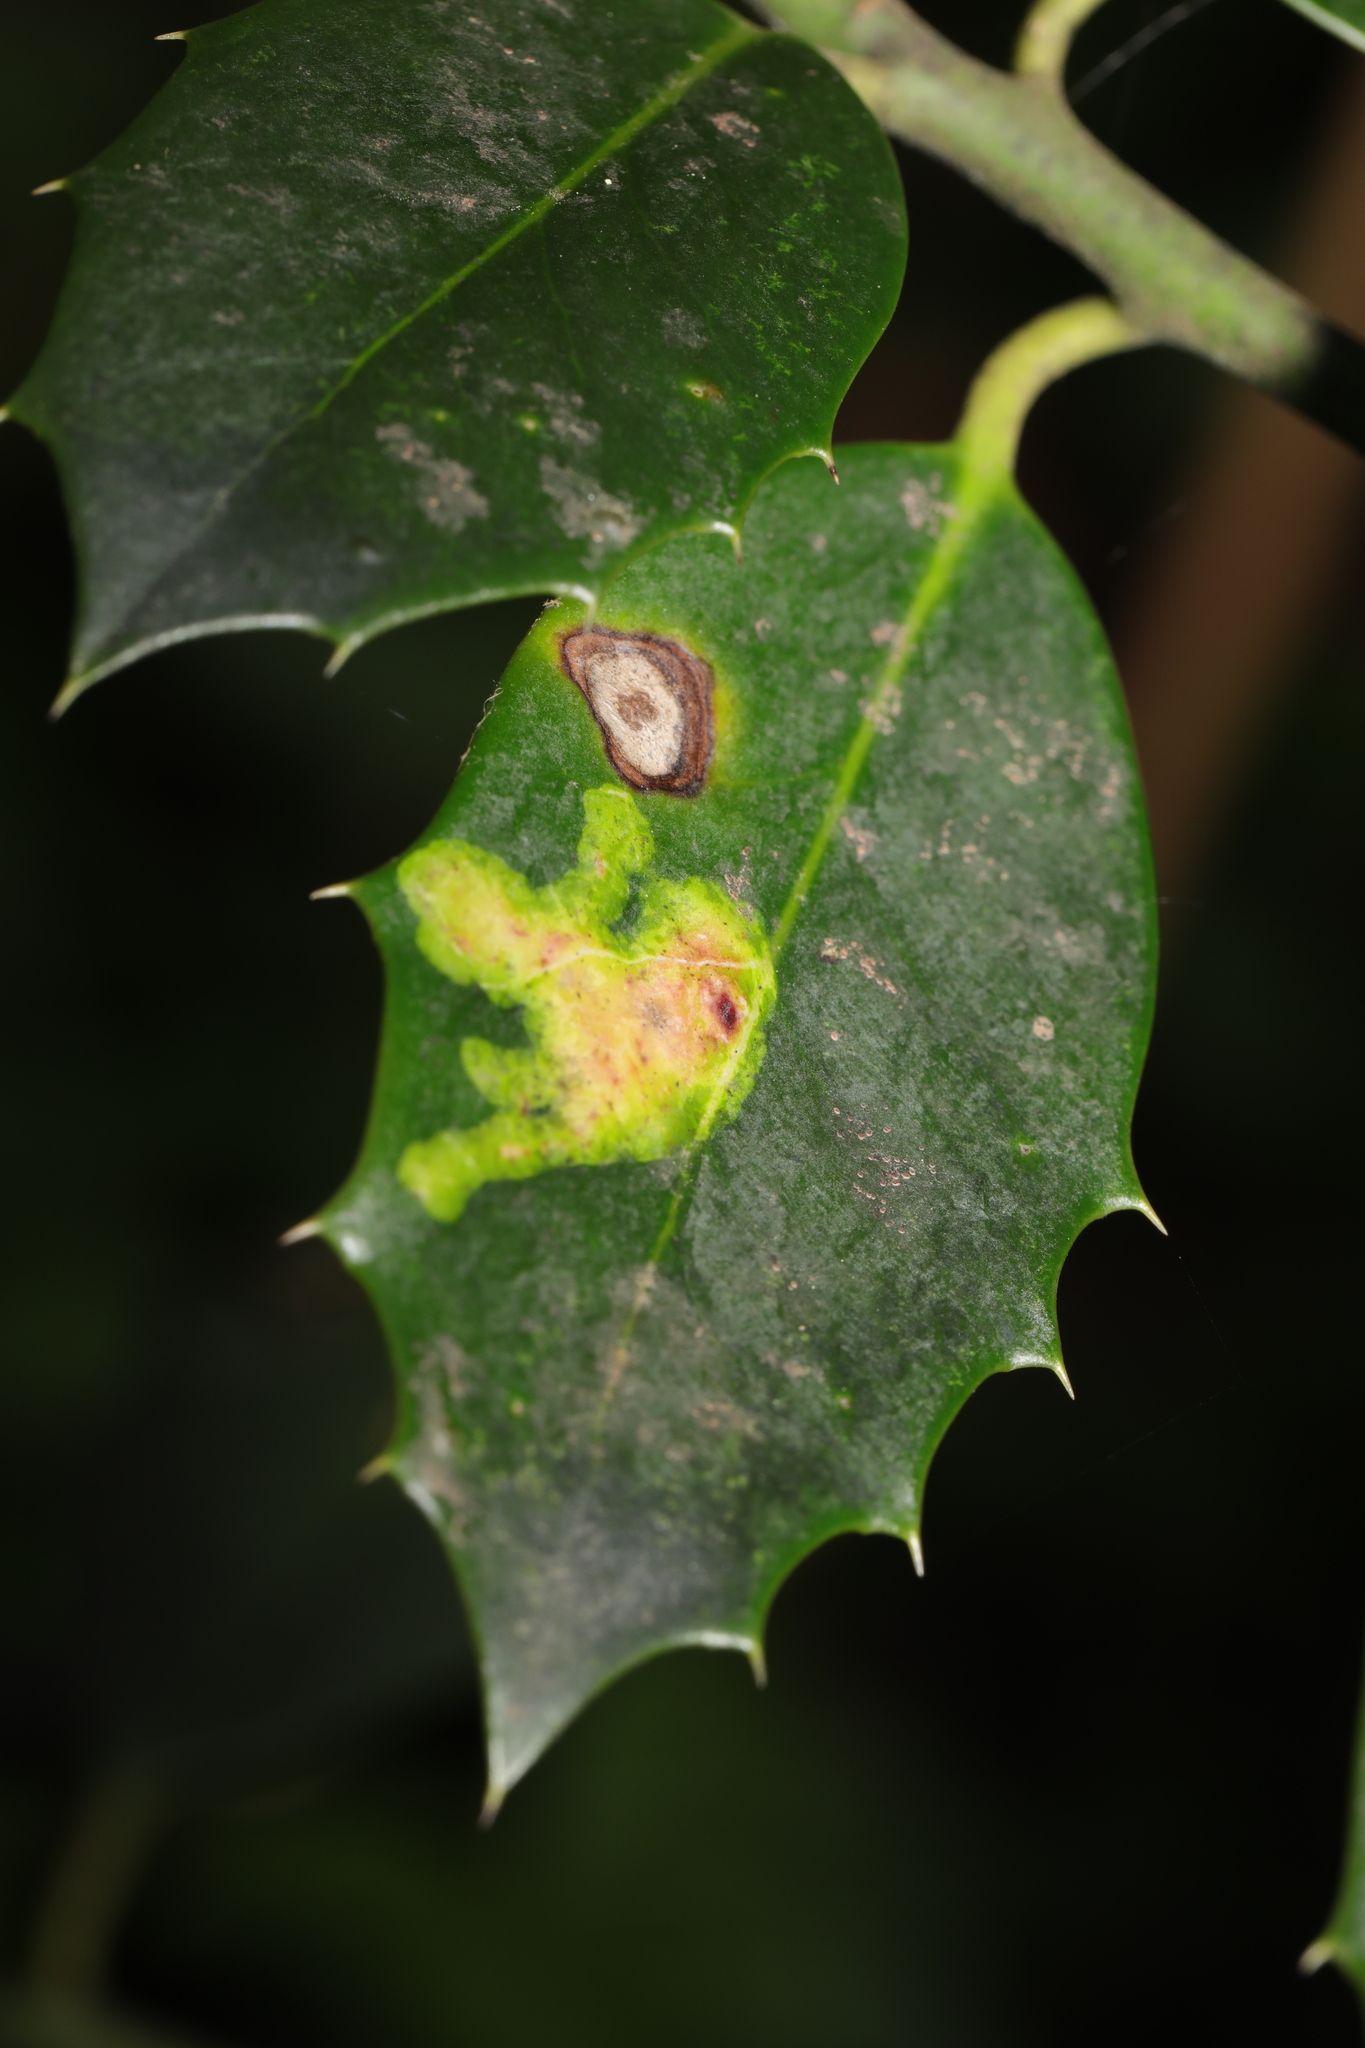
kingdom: Animalia
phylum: Arthropoda
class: Insecta
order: Diptera
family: Agromyzidae
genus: Phytomyza
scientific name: Phytomyza ilicis
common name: Holly leafminer
